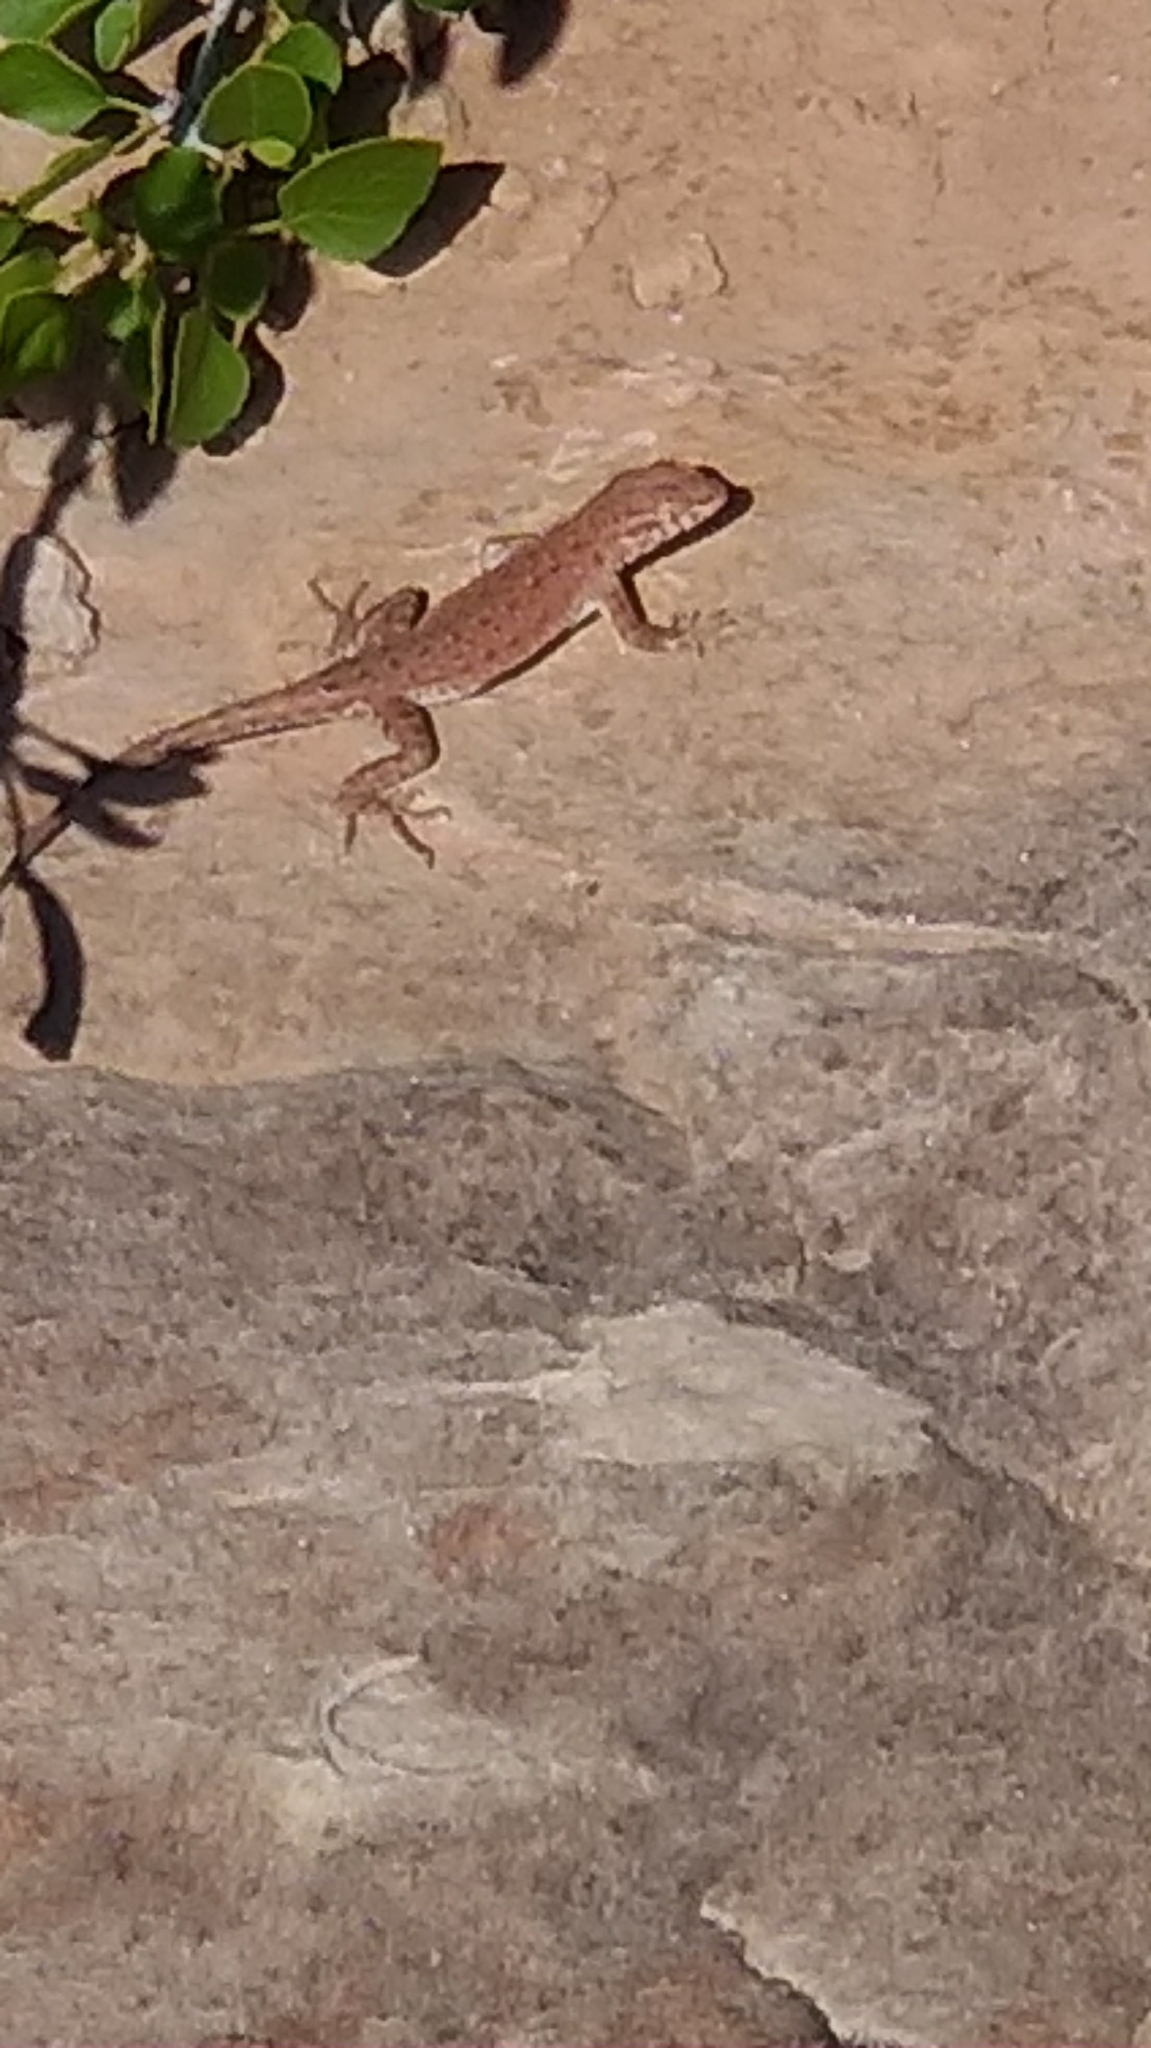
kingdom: Animalia
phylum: Chordata
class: Squamata
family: Phrynosomatidae
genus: Uta
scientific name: Uta stansburiana
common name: Side-blotched lizard
